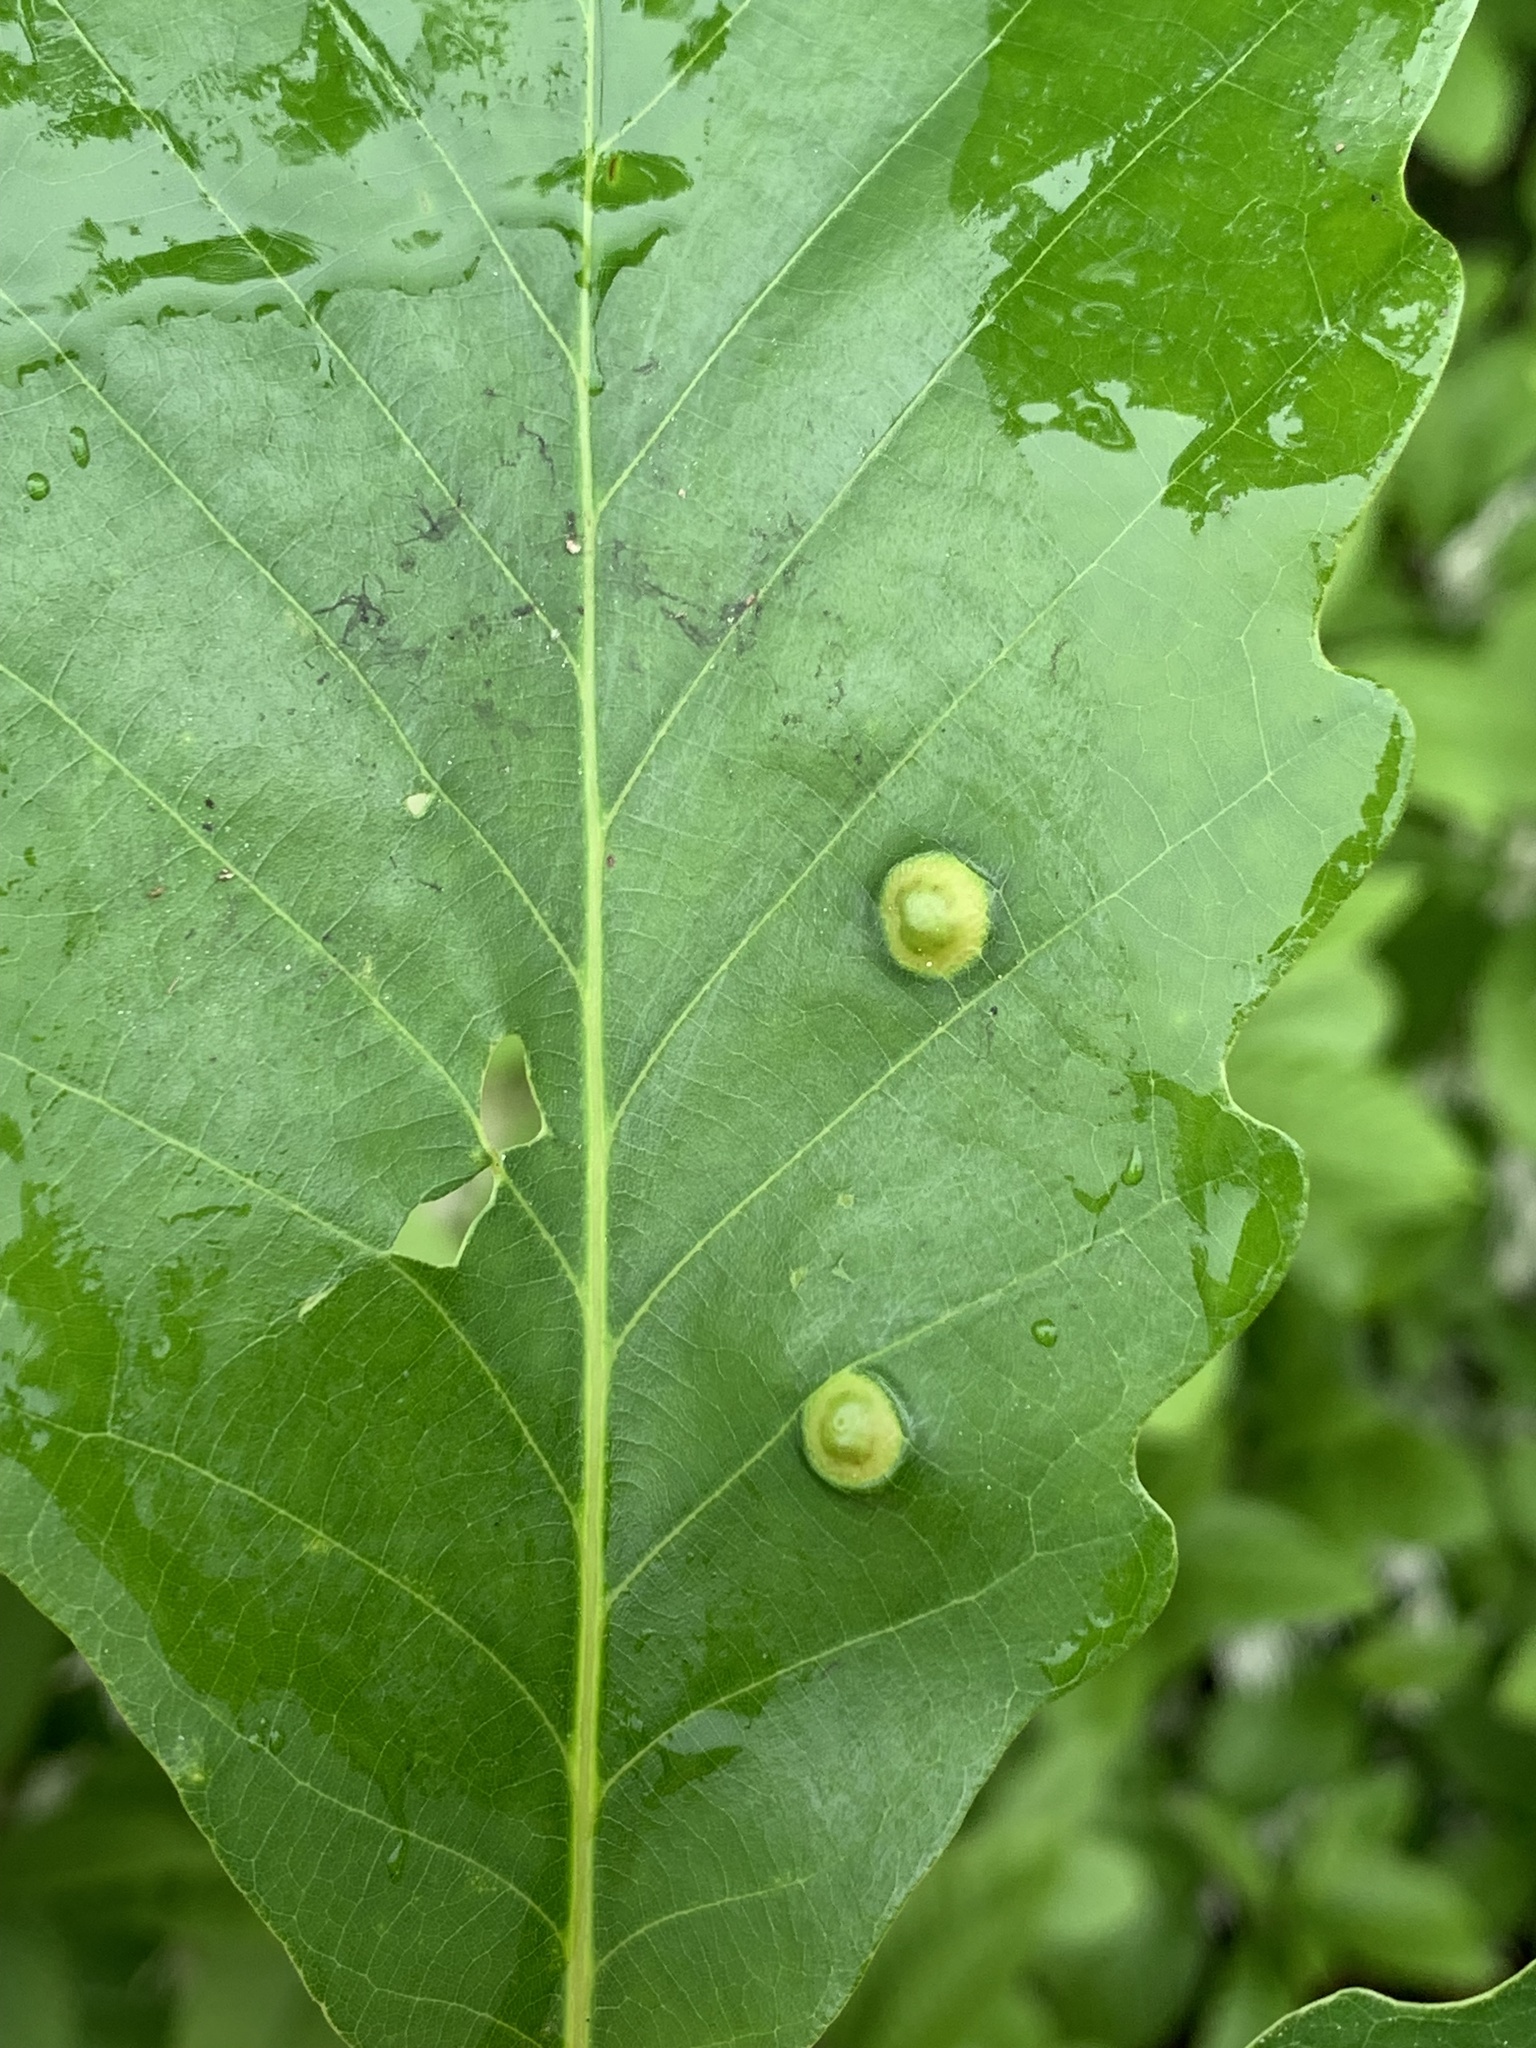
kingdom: Animalia
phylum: Arthropoda
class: Insecta
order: Hymenoptera
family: Cynipidae
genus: Callirhytis
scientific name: Callirhytis
